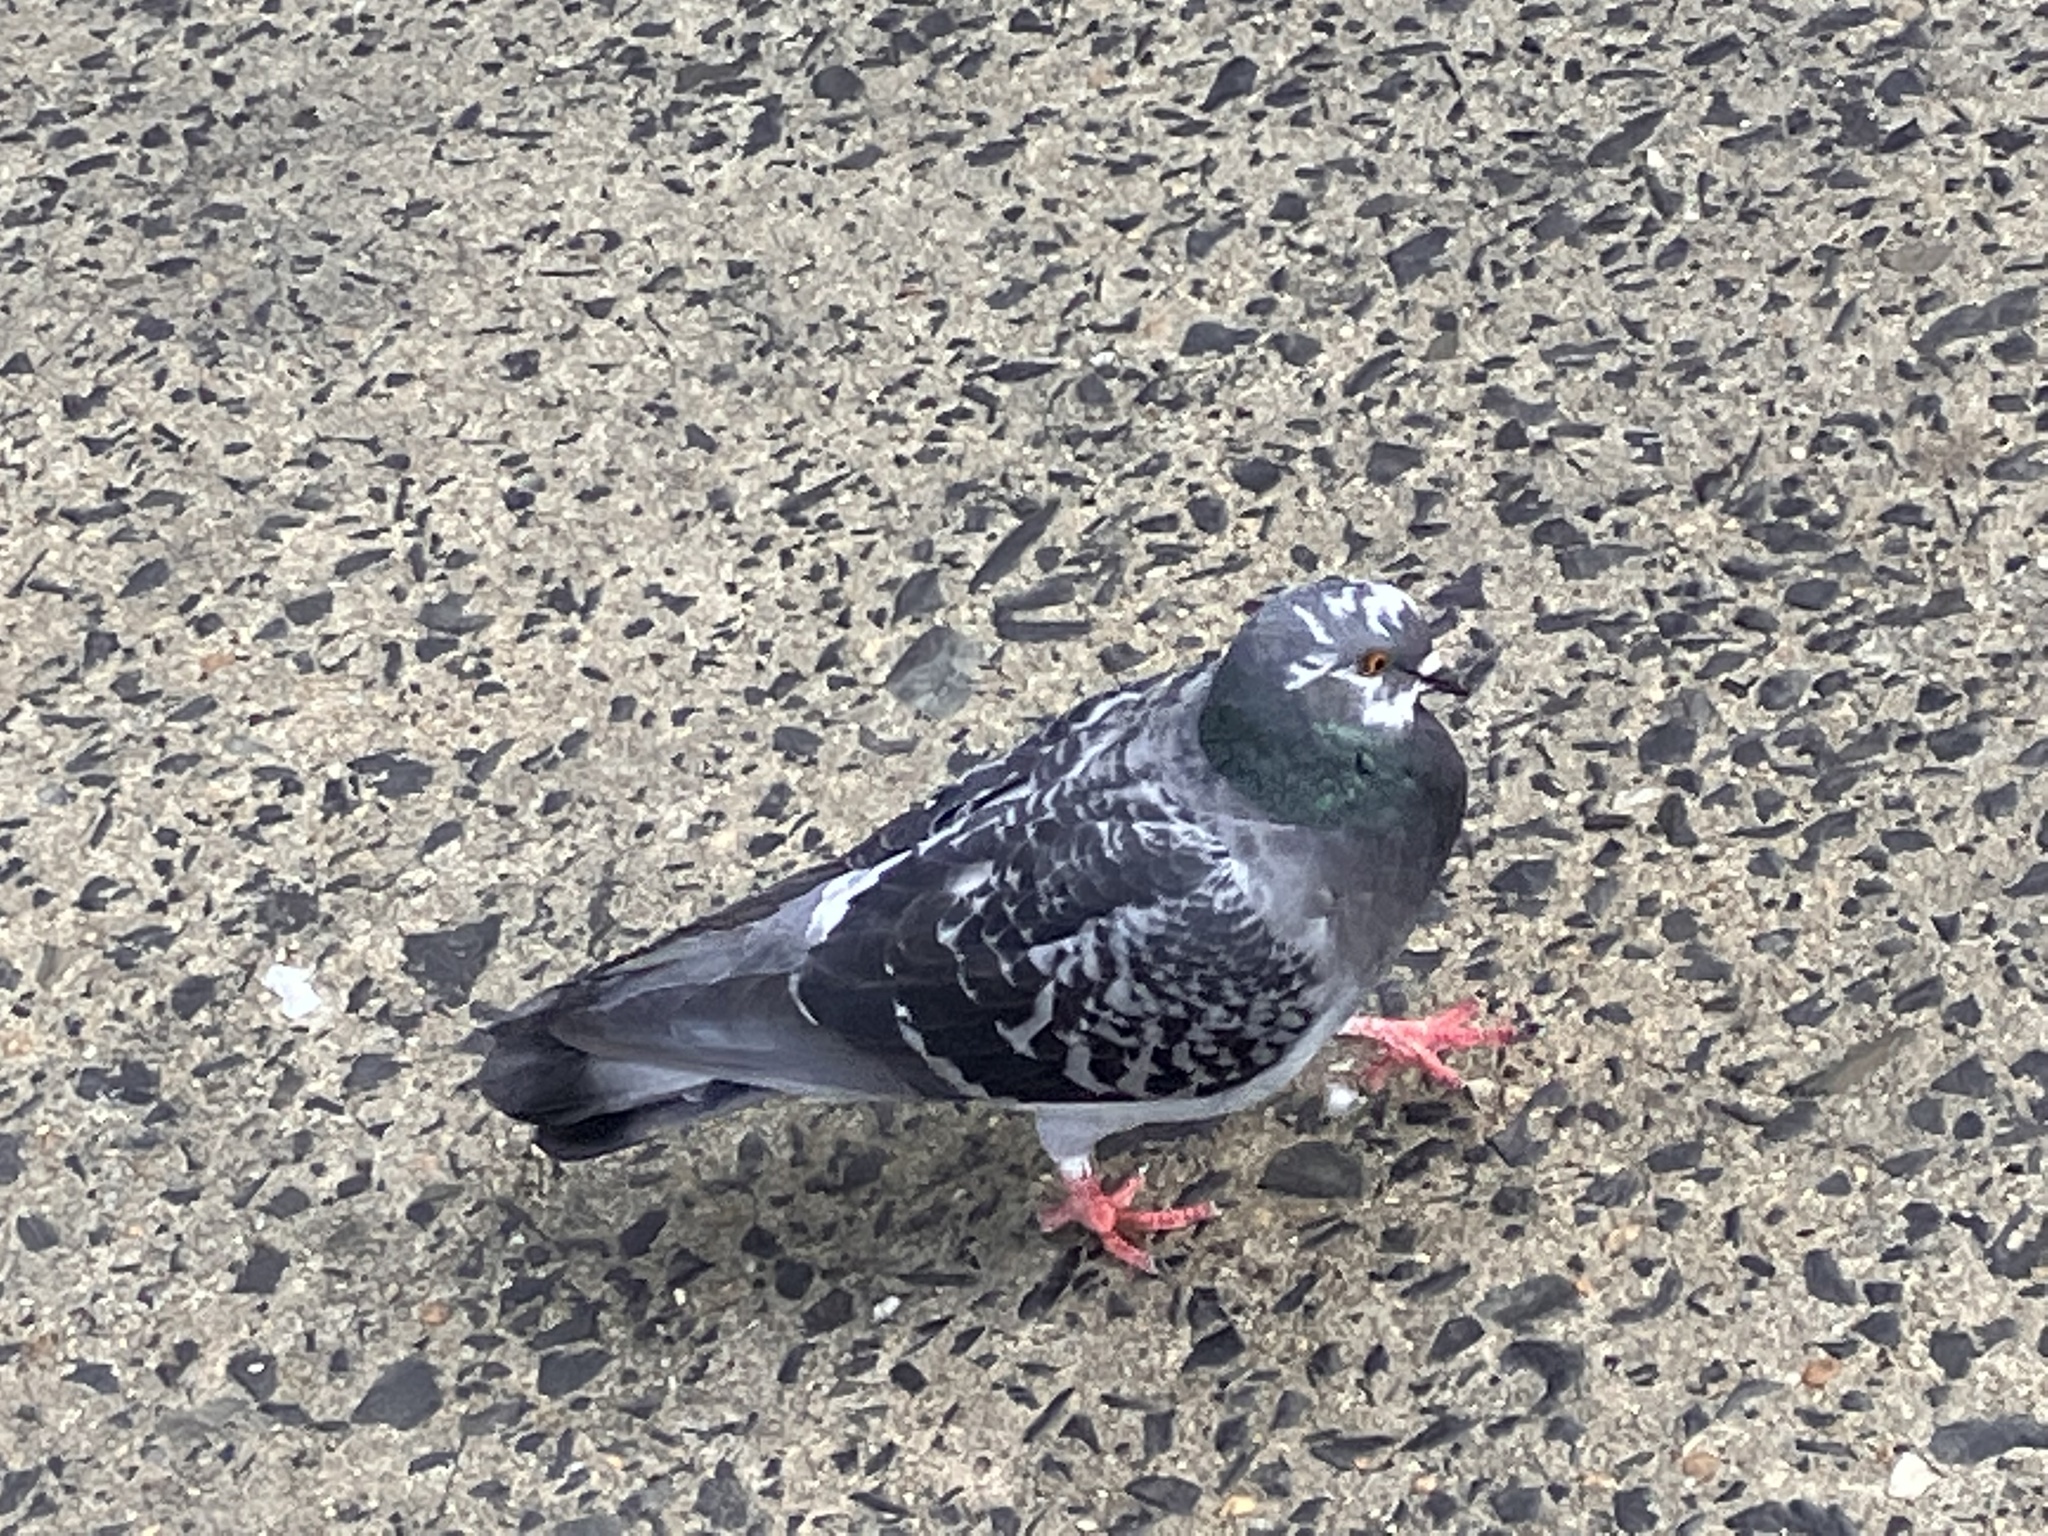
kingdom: Animalia
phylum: Chordata
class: Aves
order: Columbiformes
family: Columbidae
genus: Columba
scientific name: Columba livia
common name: Rock pigeon
